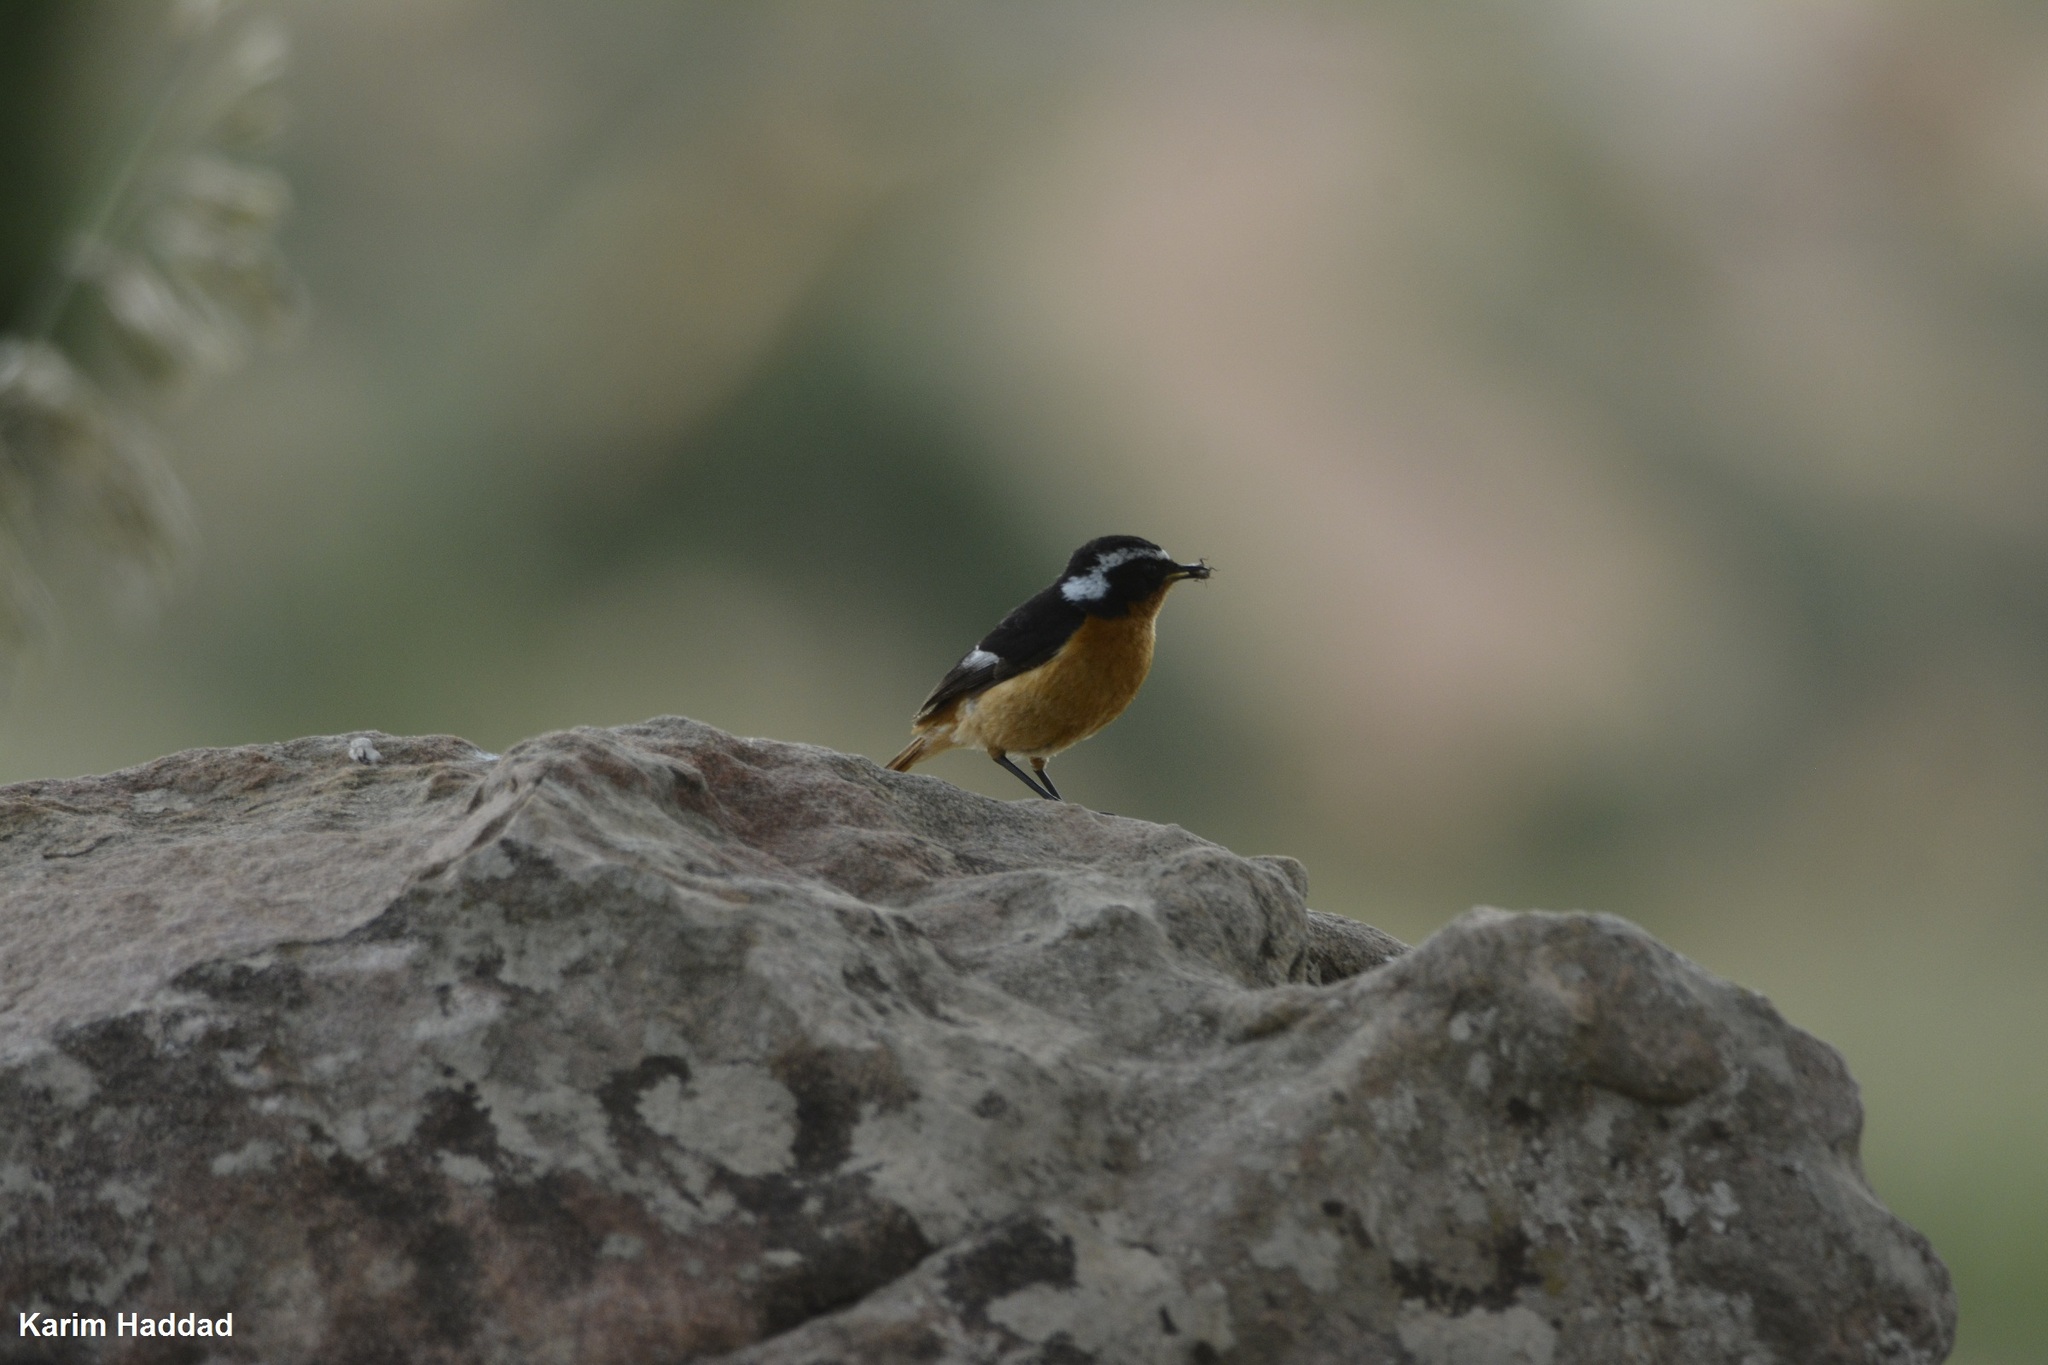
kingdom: Animalia
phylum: Chordata
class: Aves
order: Passeriformes
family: Muscicapidae
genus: Phoenicurus
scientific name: Phoenicurus moussieri
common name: Moussier's redstart
